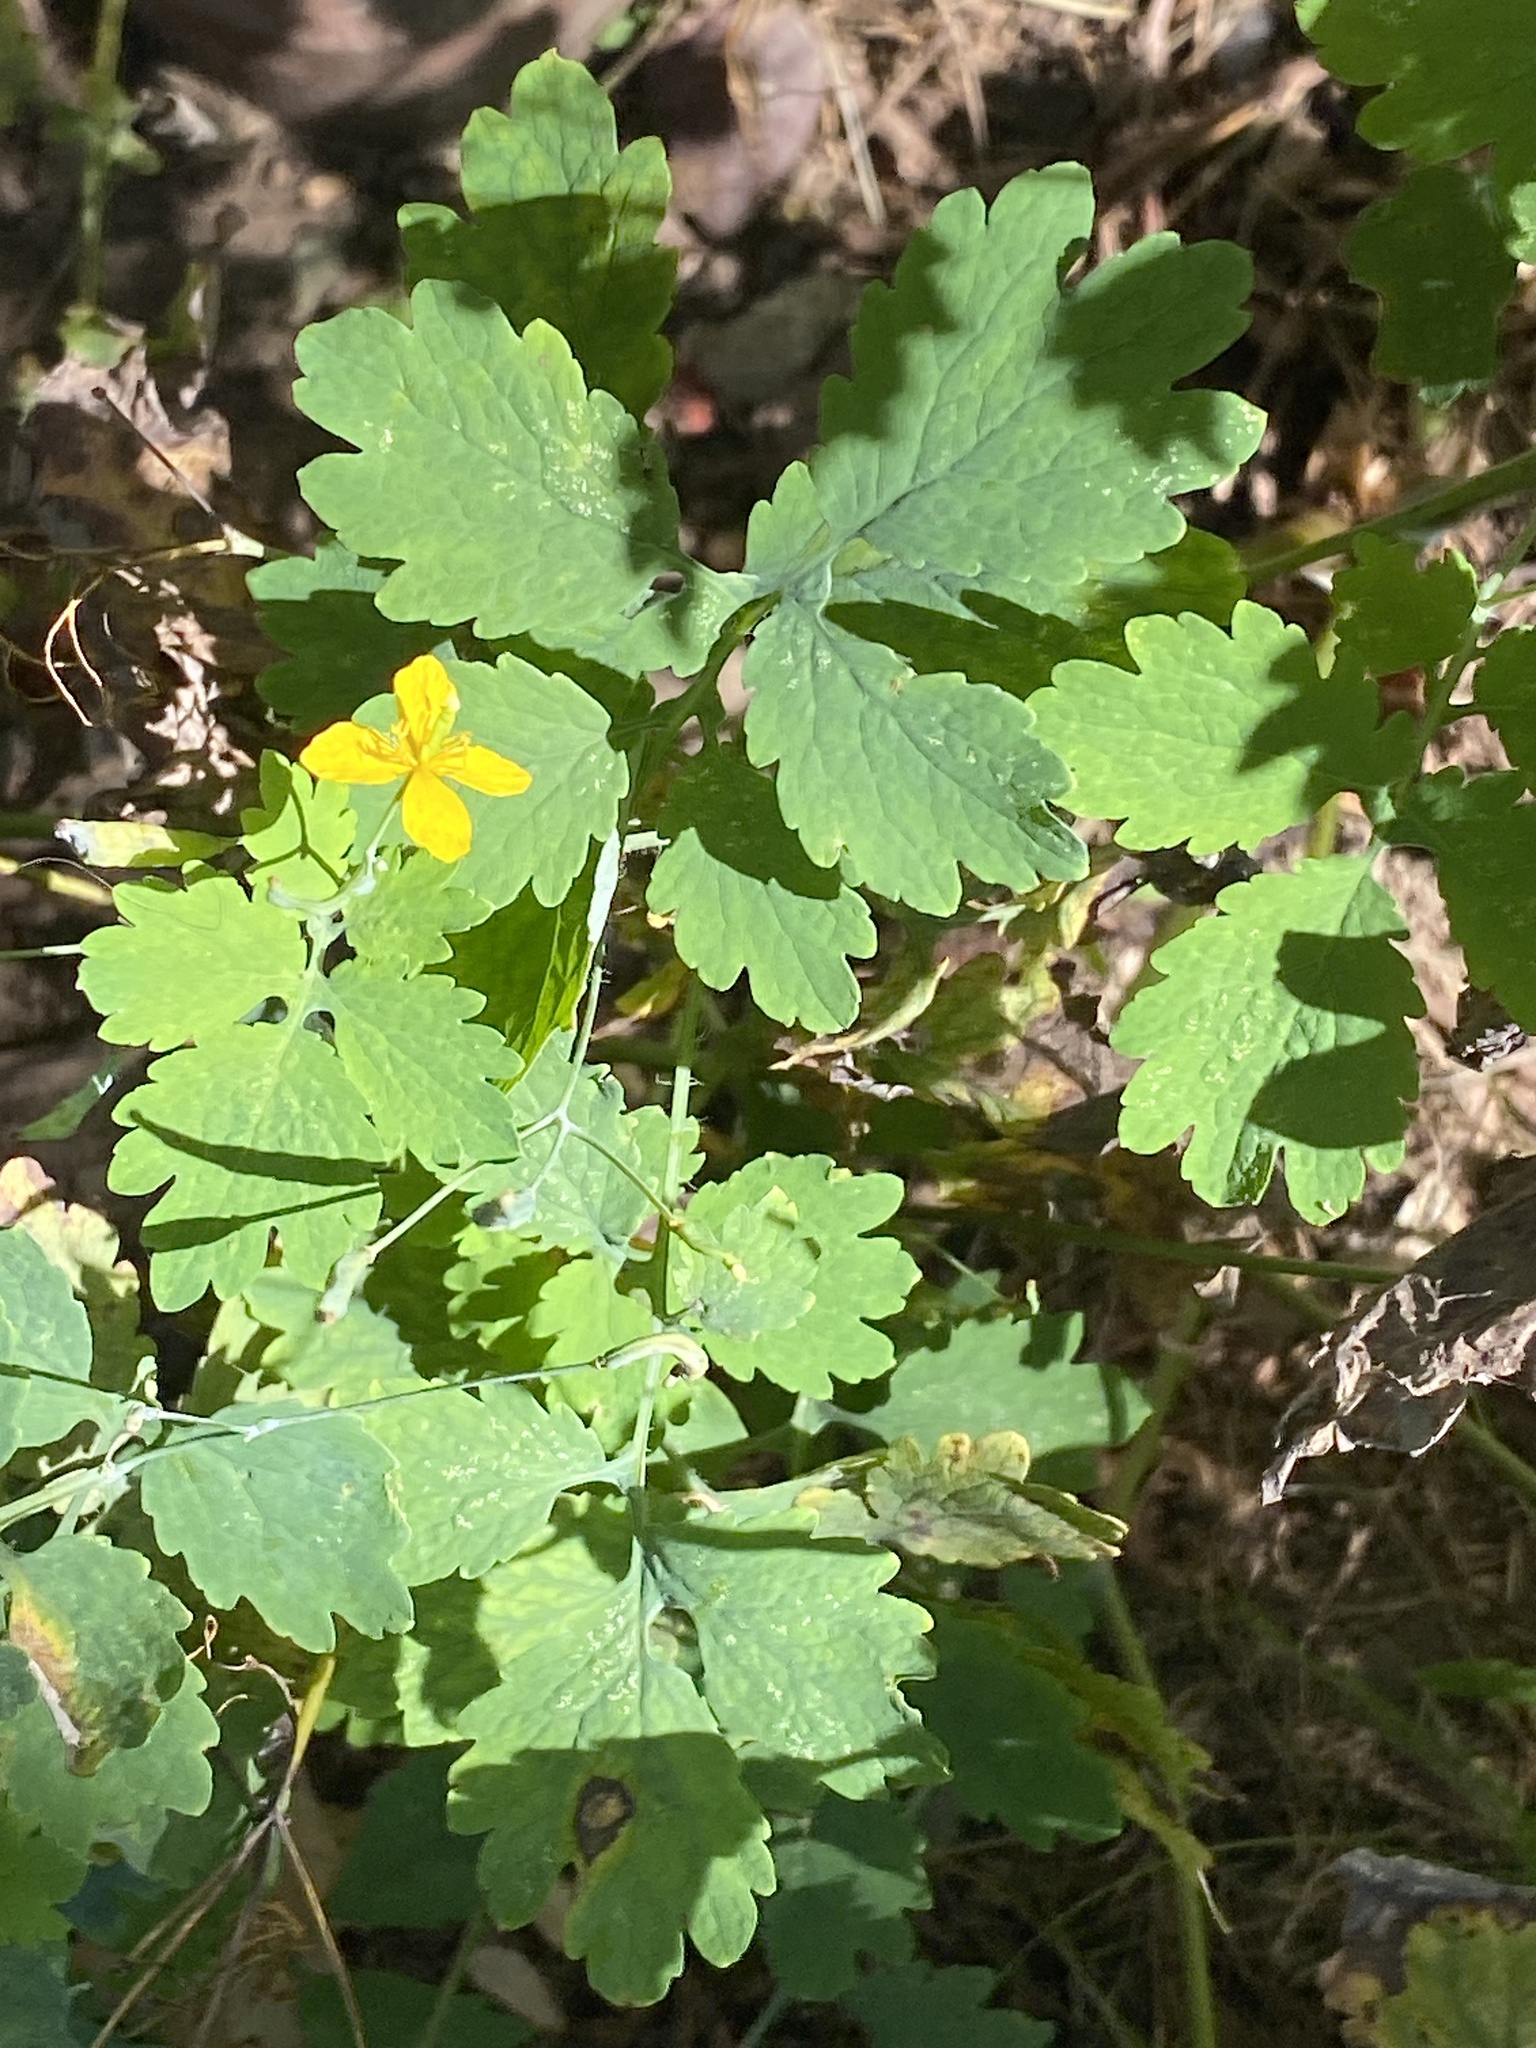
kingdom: Plantae
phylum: Tracheophyta
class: Magnoliopsida
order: Ranunculales
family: Papaveraceae
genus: Chelidonium
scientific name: Chelidonium majus
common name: Greater celandine
